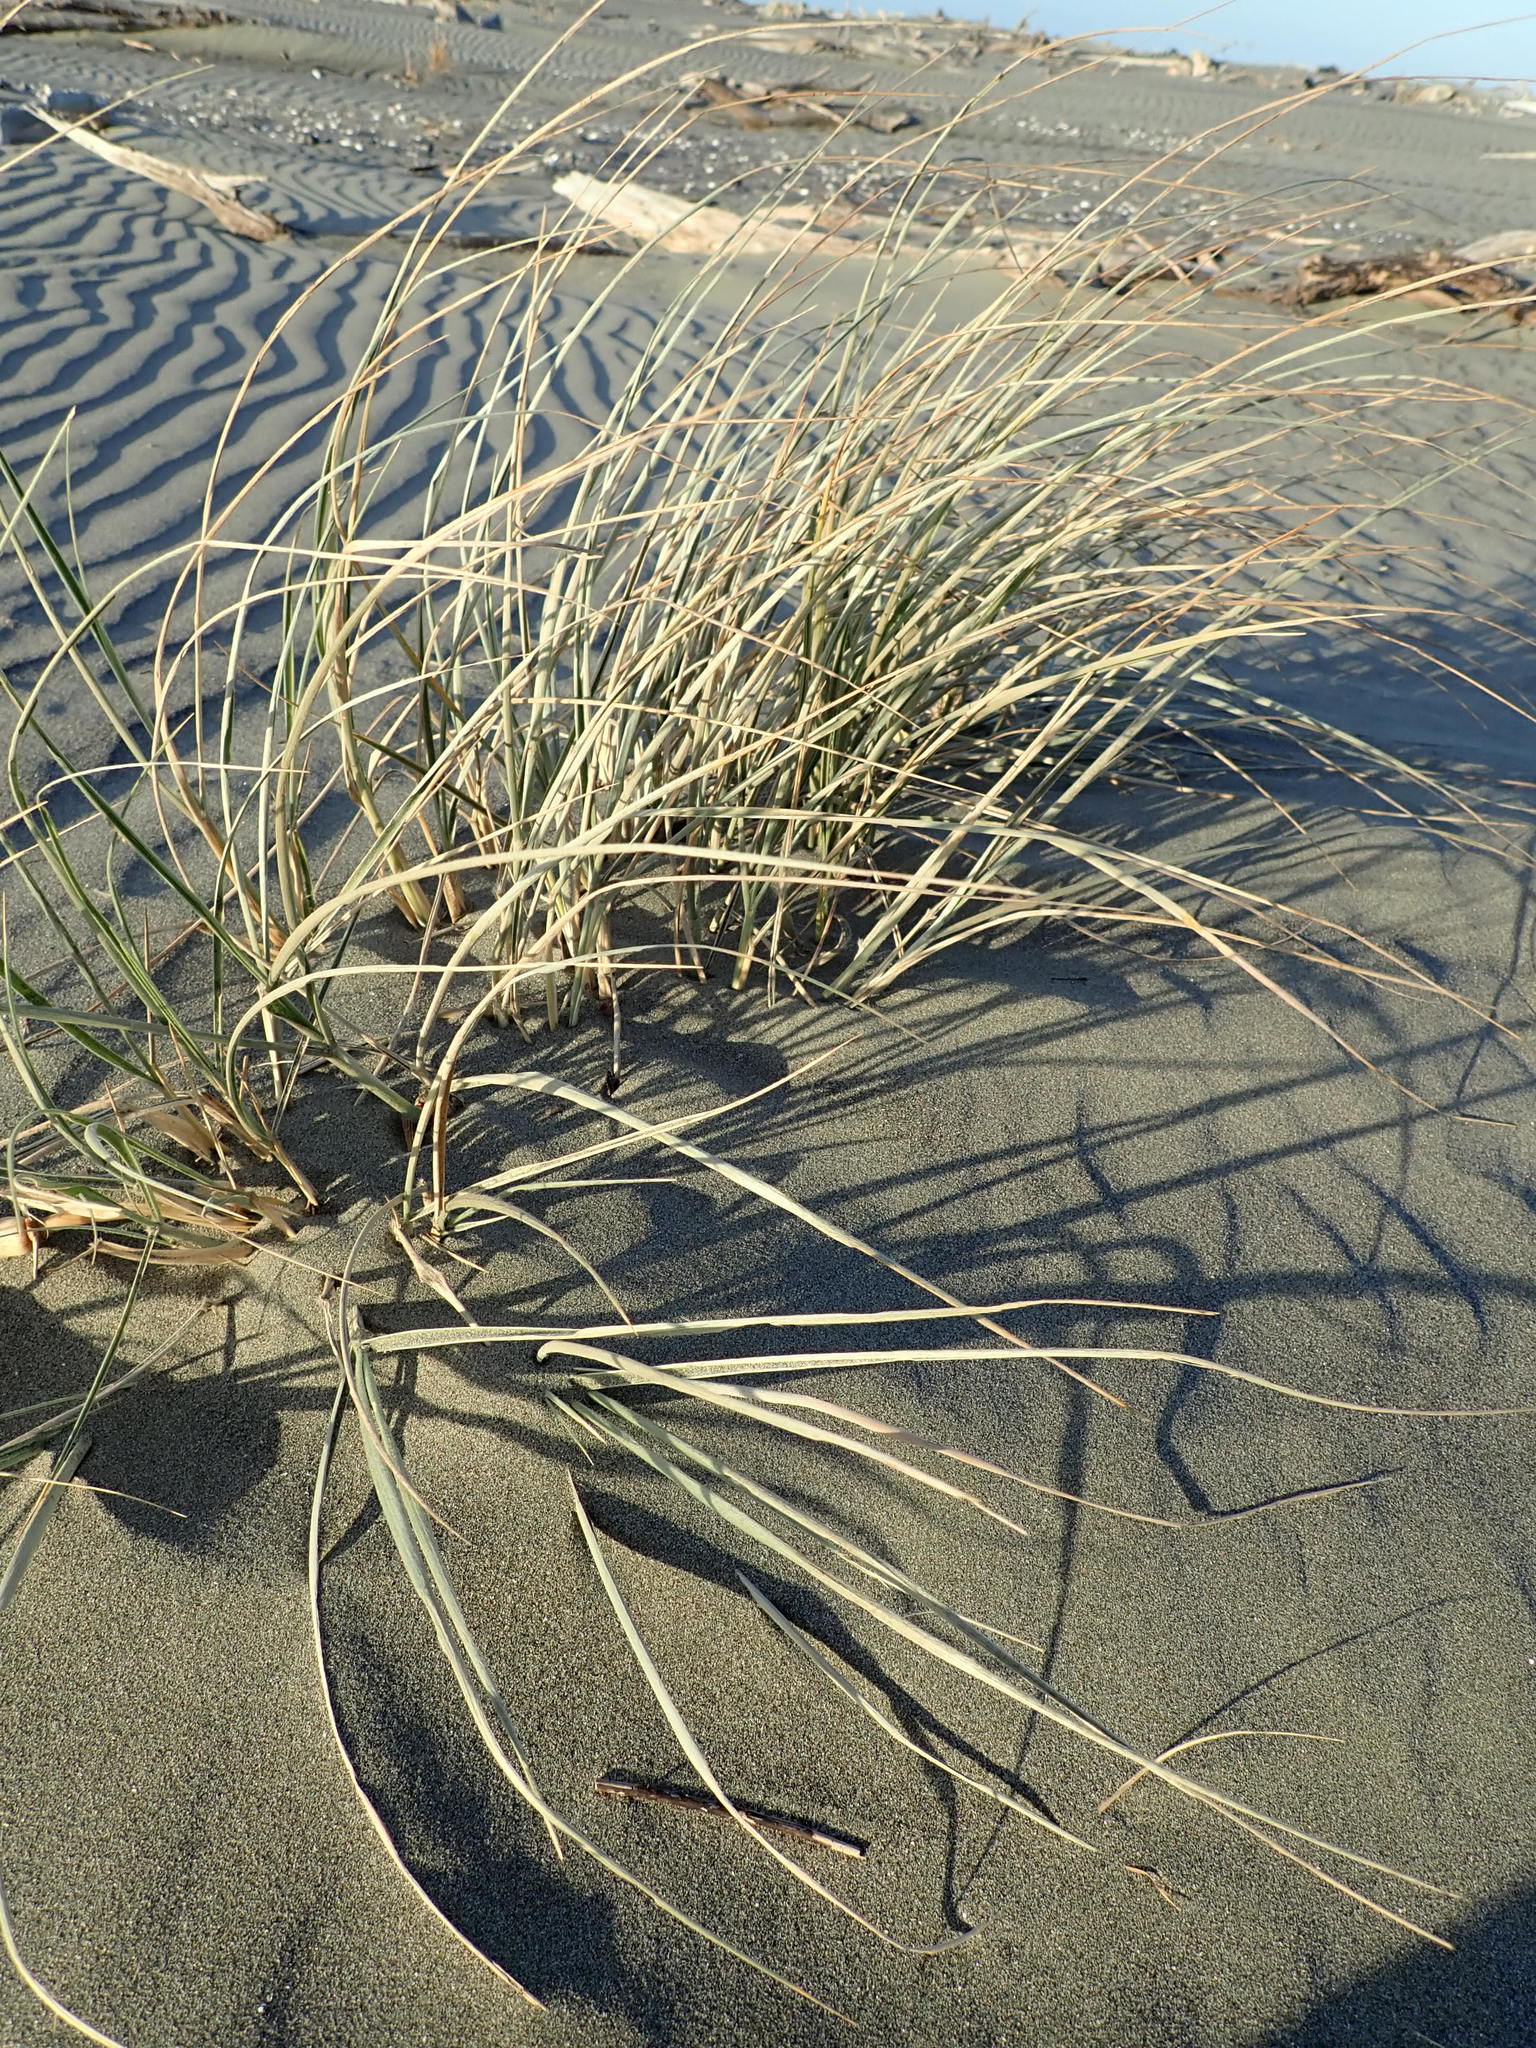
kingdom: Plantae
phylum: Tracheophyta
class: Liliopsida
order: Poales
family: Poaceae
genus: Spinifex
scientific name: Spinifex sericeus
